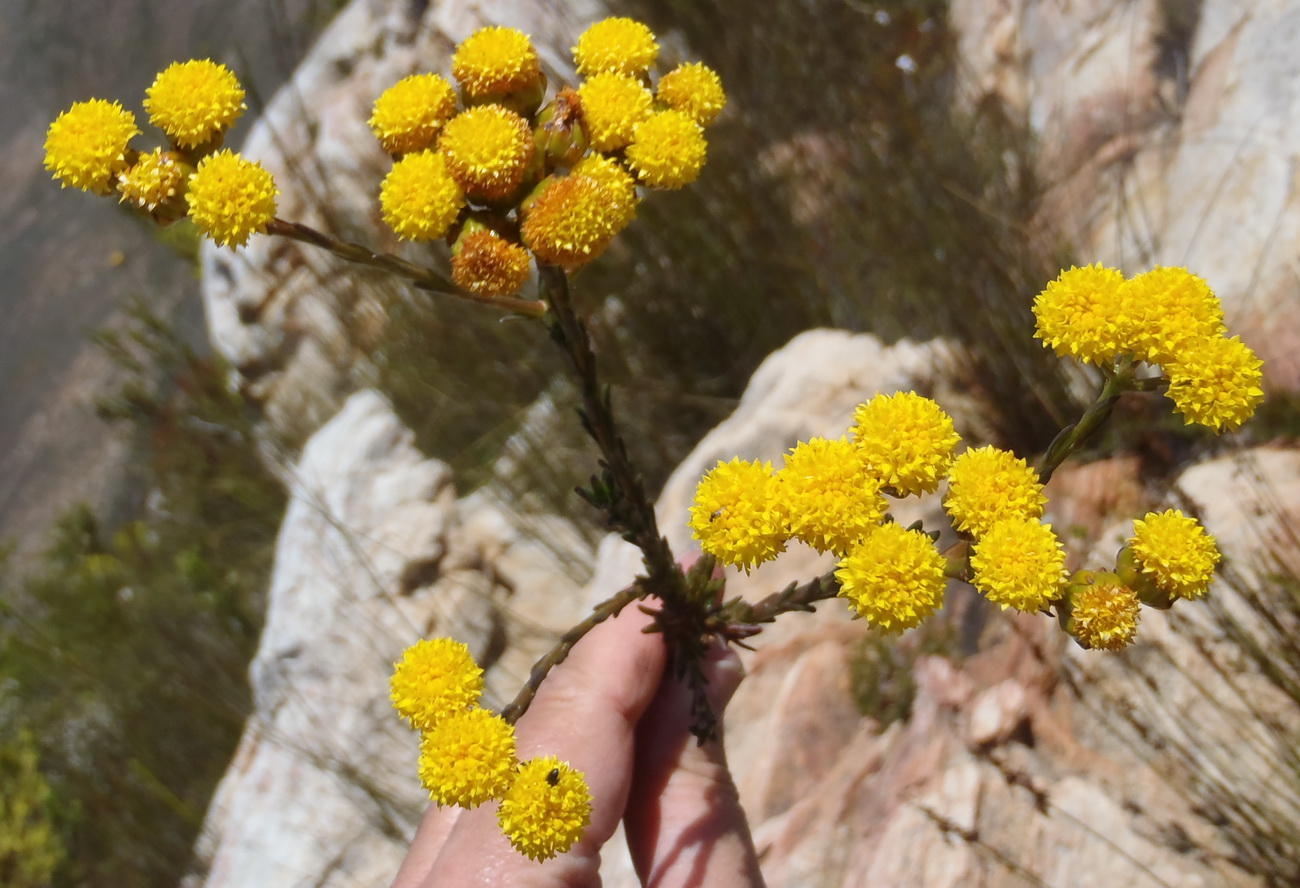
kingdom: Plantae
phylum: Tracheophyta
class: Magnoliopsida
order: Asterales
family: Asteraceae
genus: Athanasia
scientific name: Athanasia linifolia
